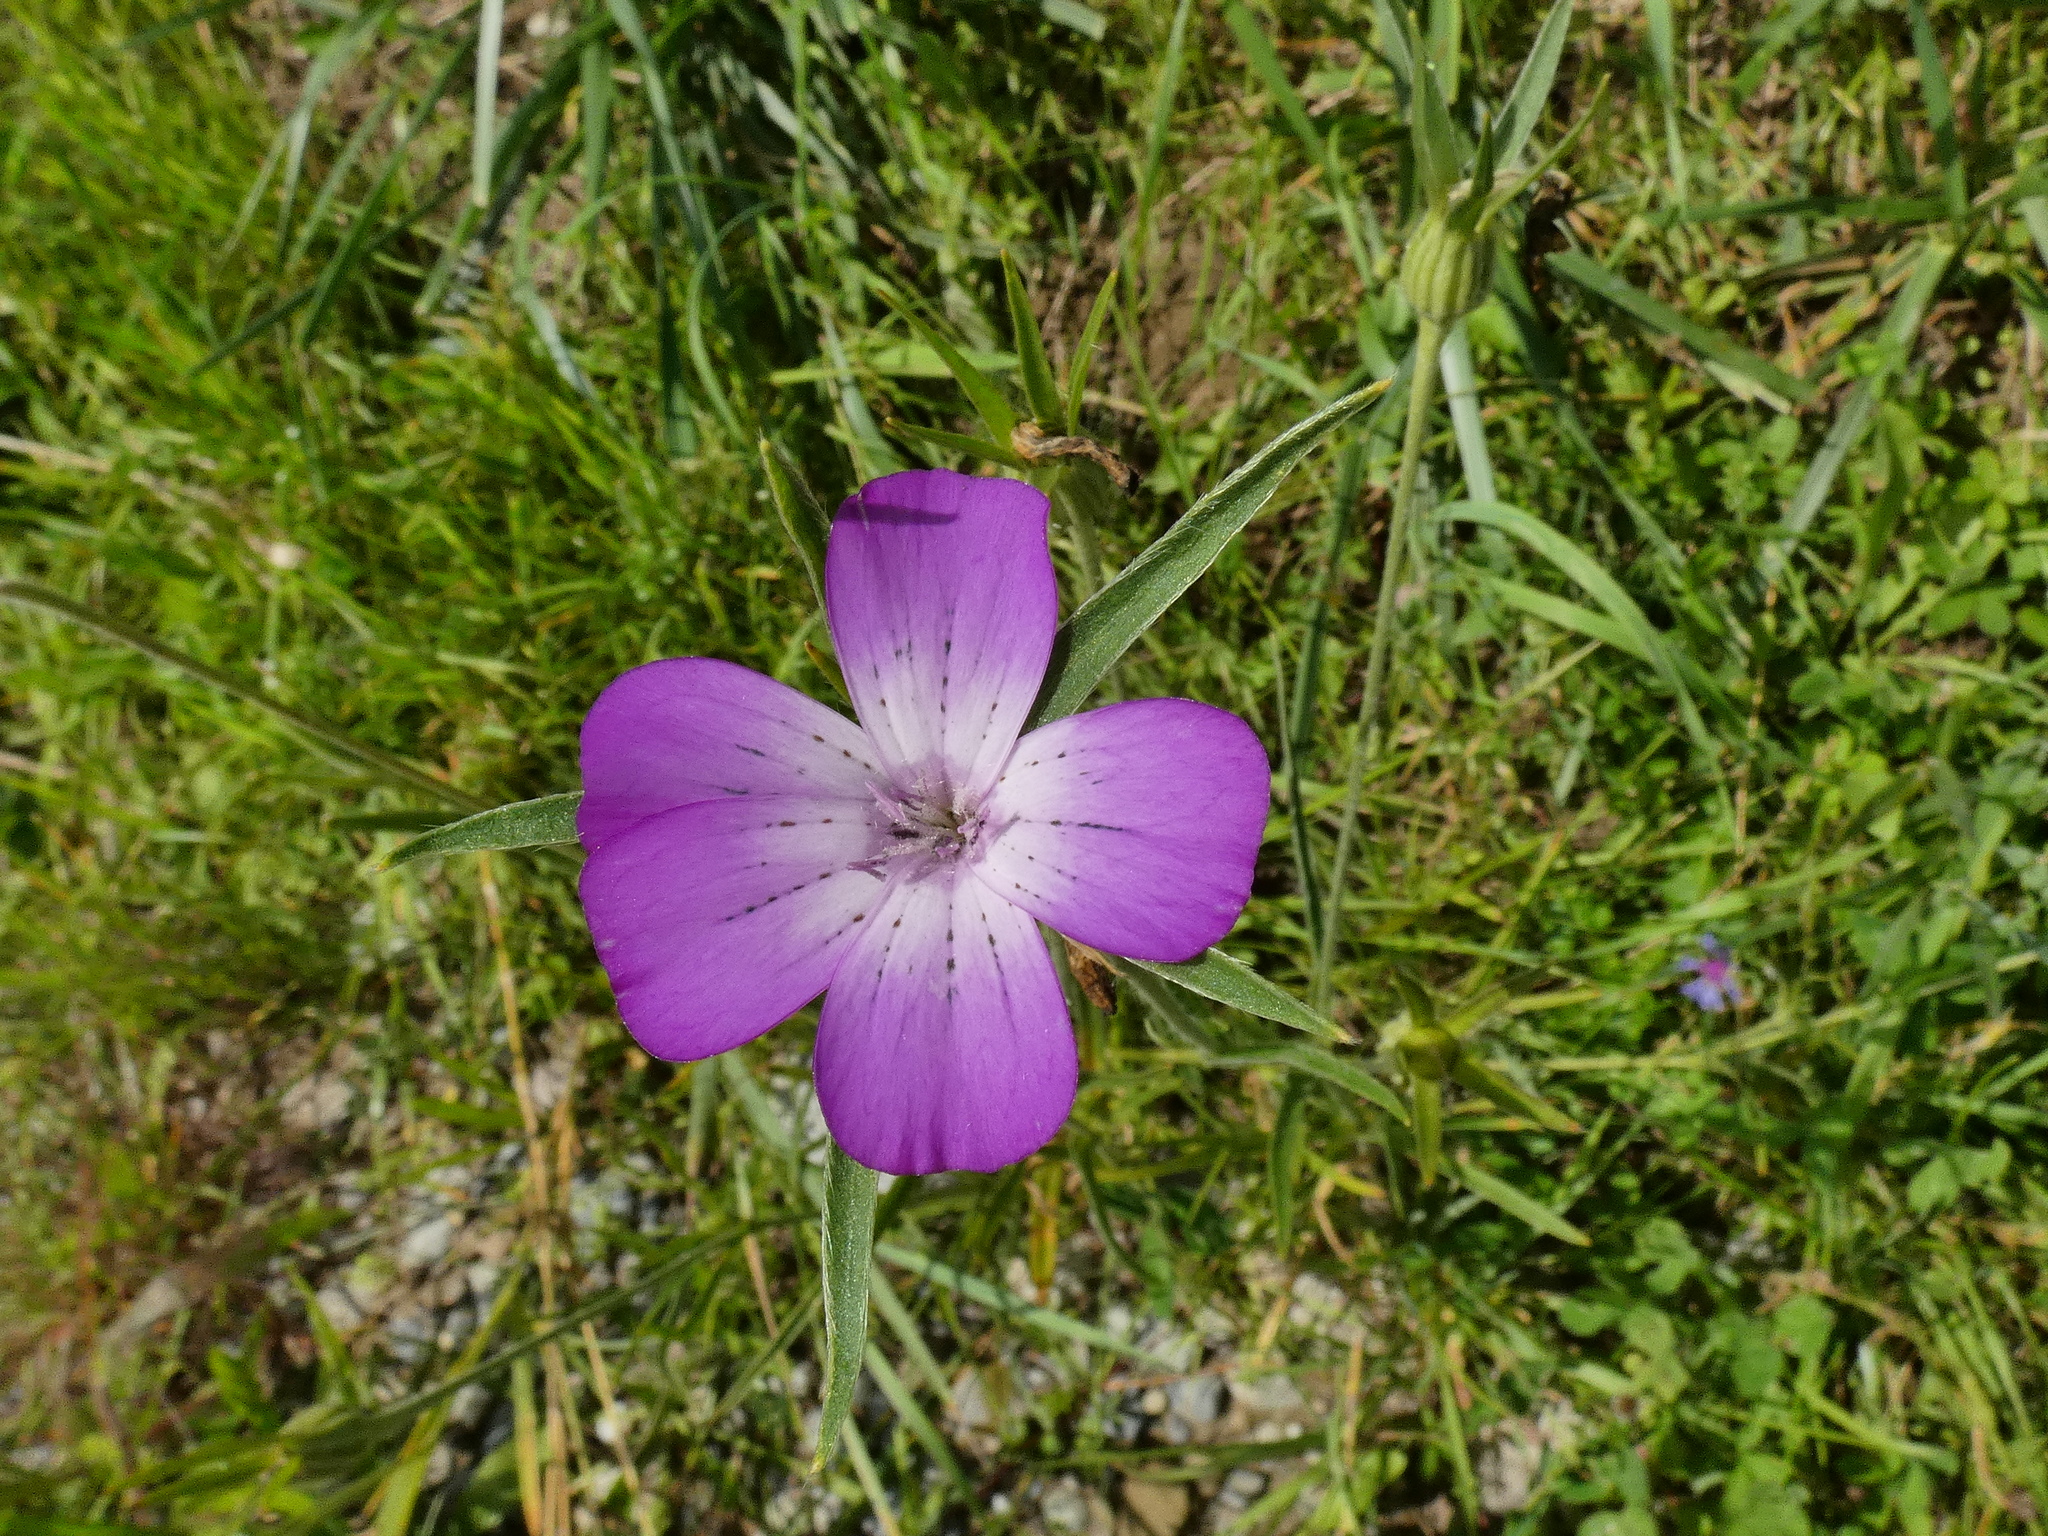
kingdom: Plantae
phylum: Tracheophyta
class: Magnoliopsida
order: Caryophyllales
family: Caryophyllaceae
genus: Agrostemma
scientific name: Agrostemma githago
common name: Common corncockle
